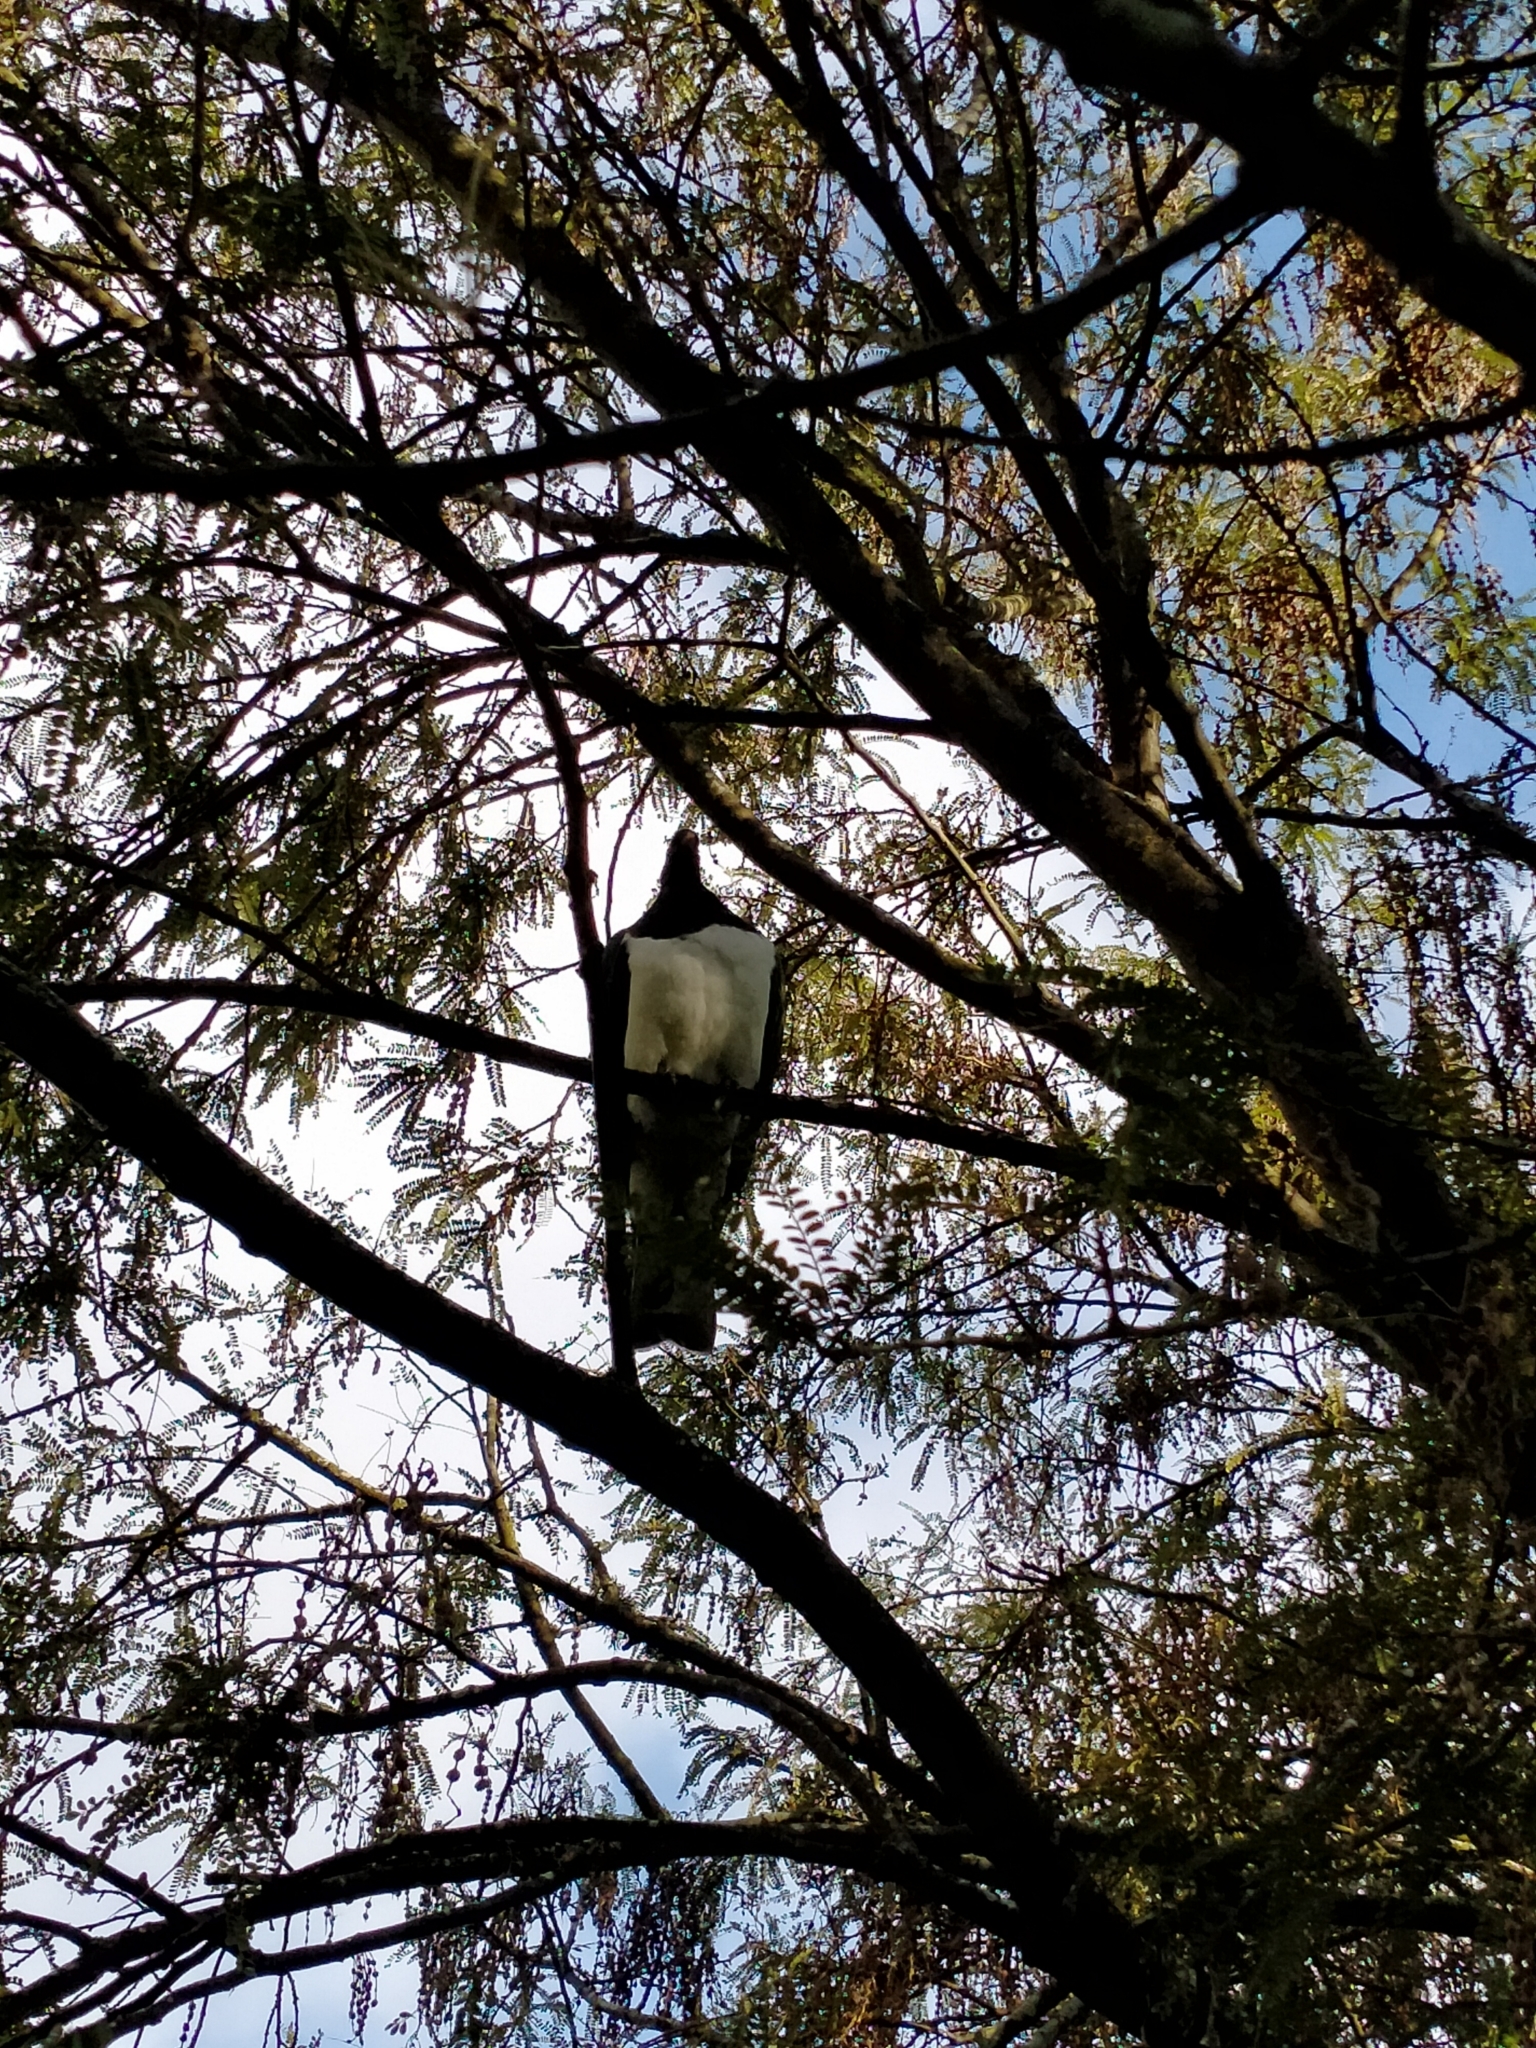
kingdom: Animalia
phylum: Chordata
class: Aves
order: Columbiformes
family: Columbidae
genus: Hemiphaga
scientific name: Hemiphaga novaeseelandiae
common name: New zealand pigeon
